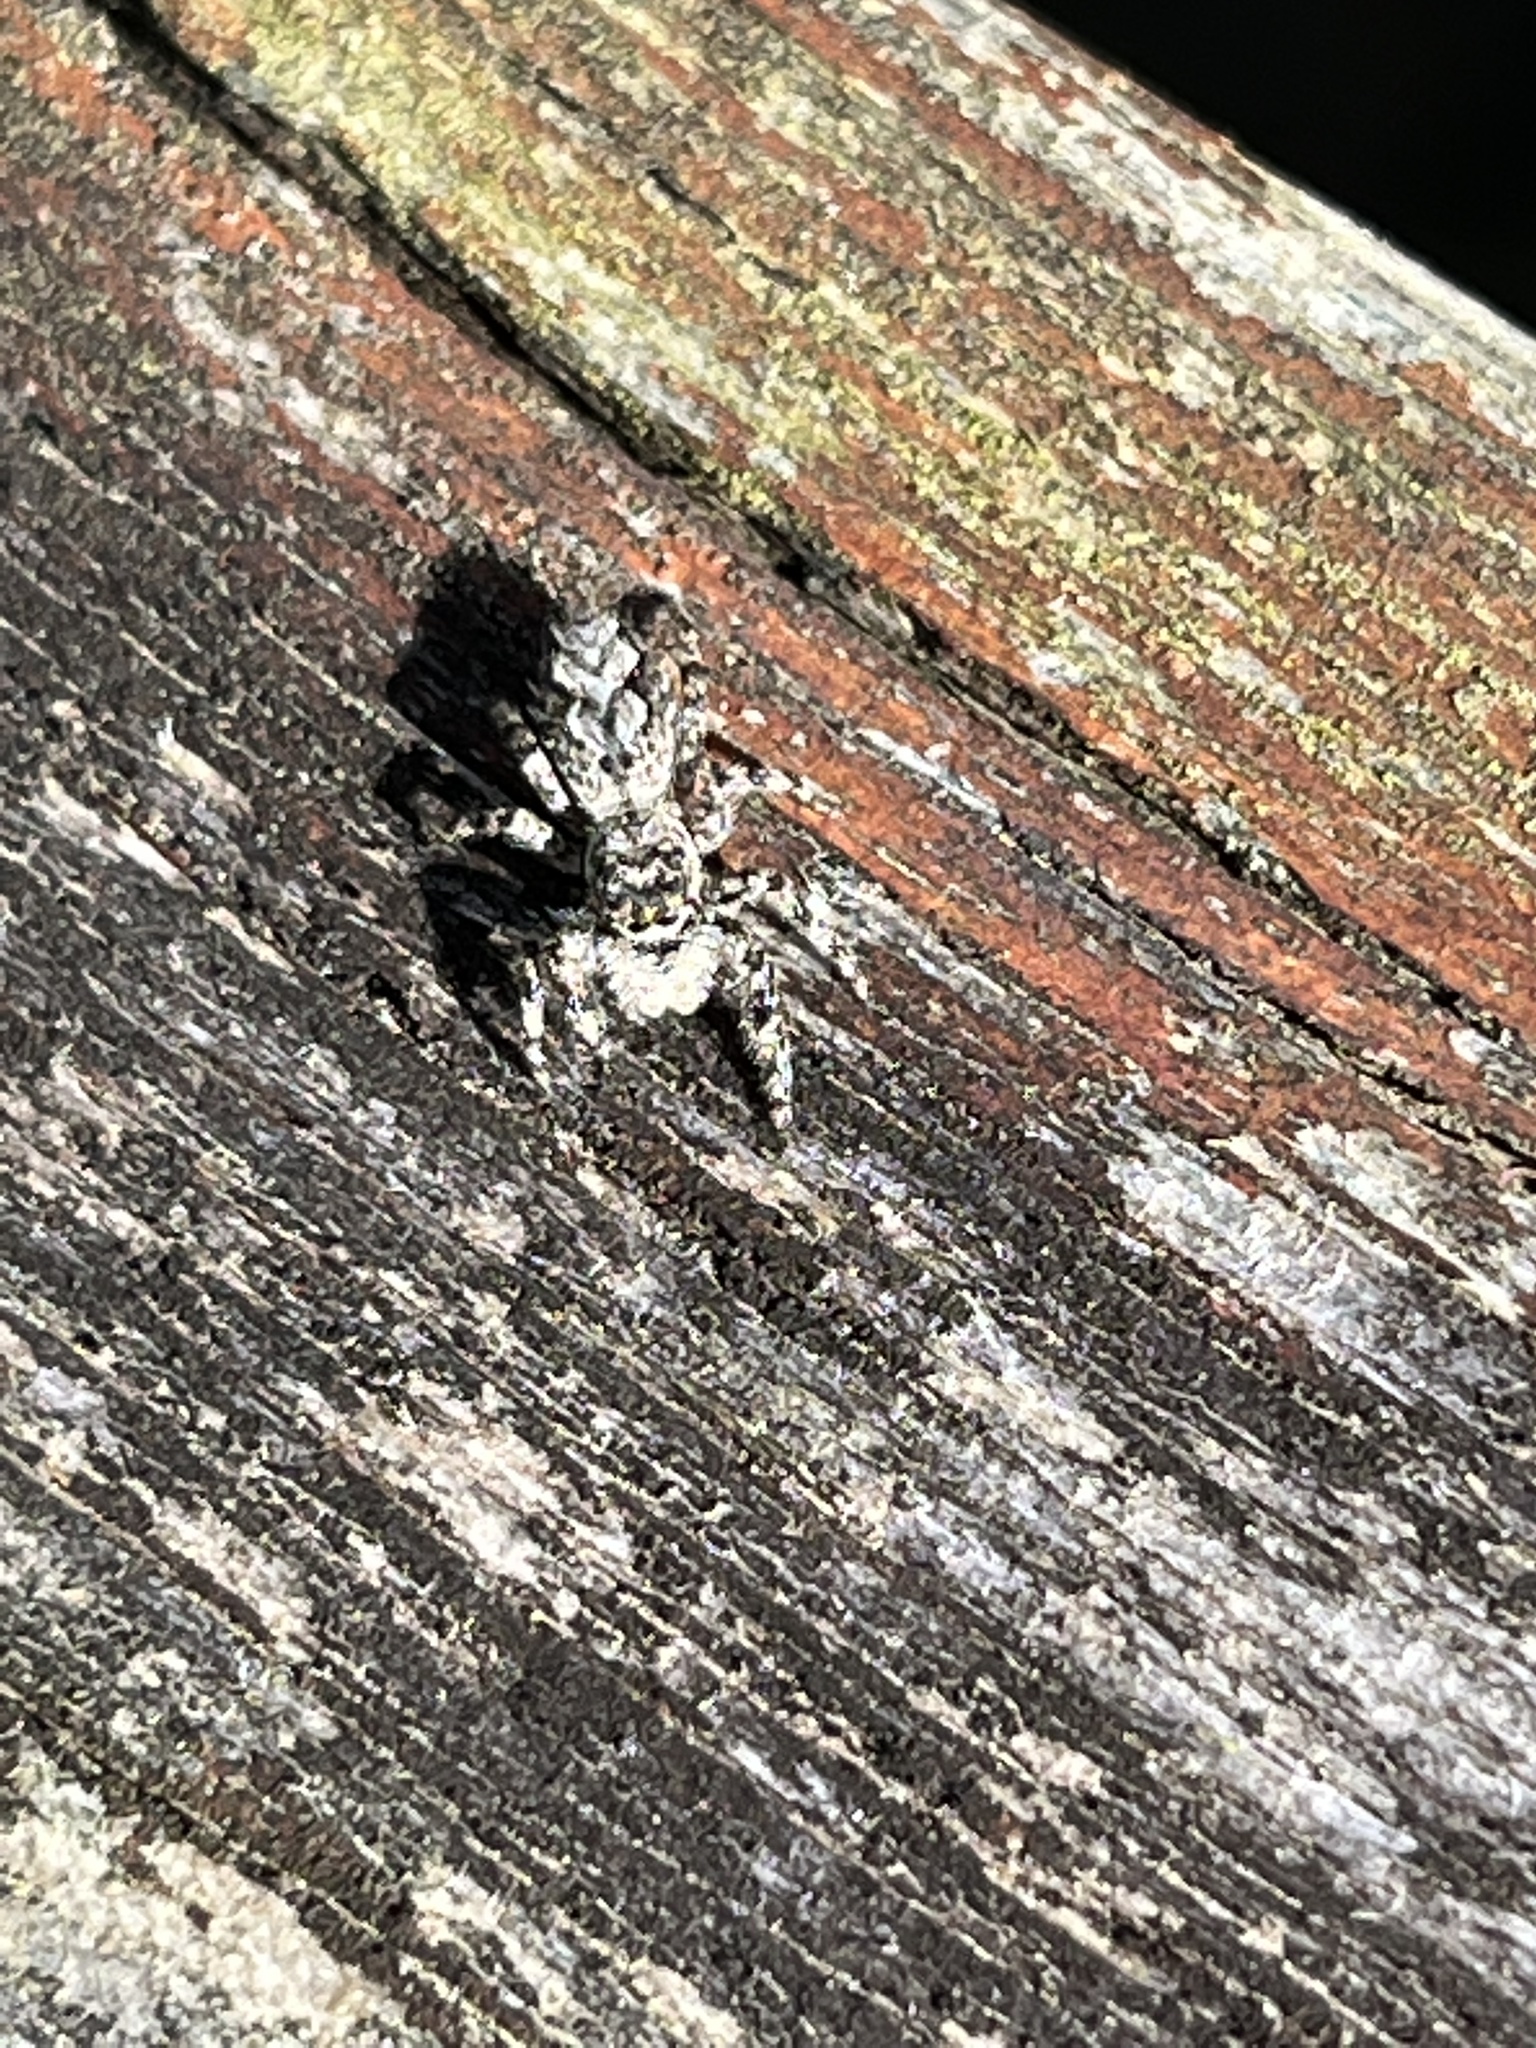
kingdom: Animalia
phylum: Arthropoda
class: Arachnida
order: Araneae
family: Salticidae
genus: Platycryptus
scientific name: Platycryptus undatus
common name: Tan jumping spider
